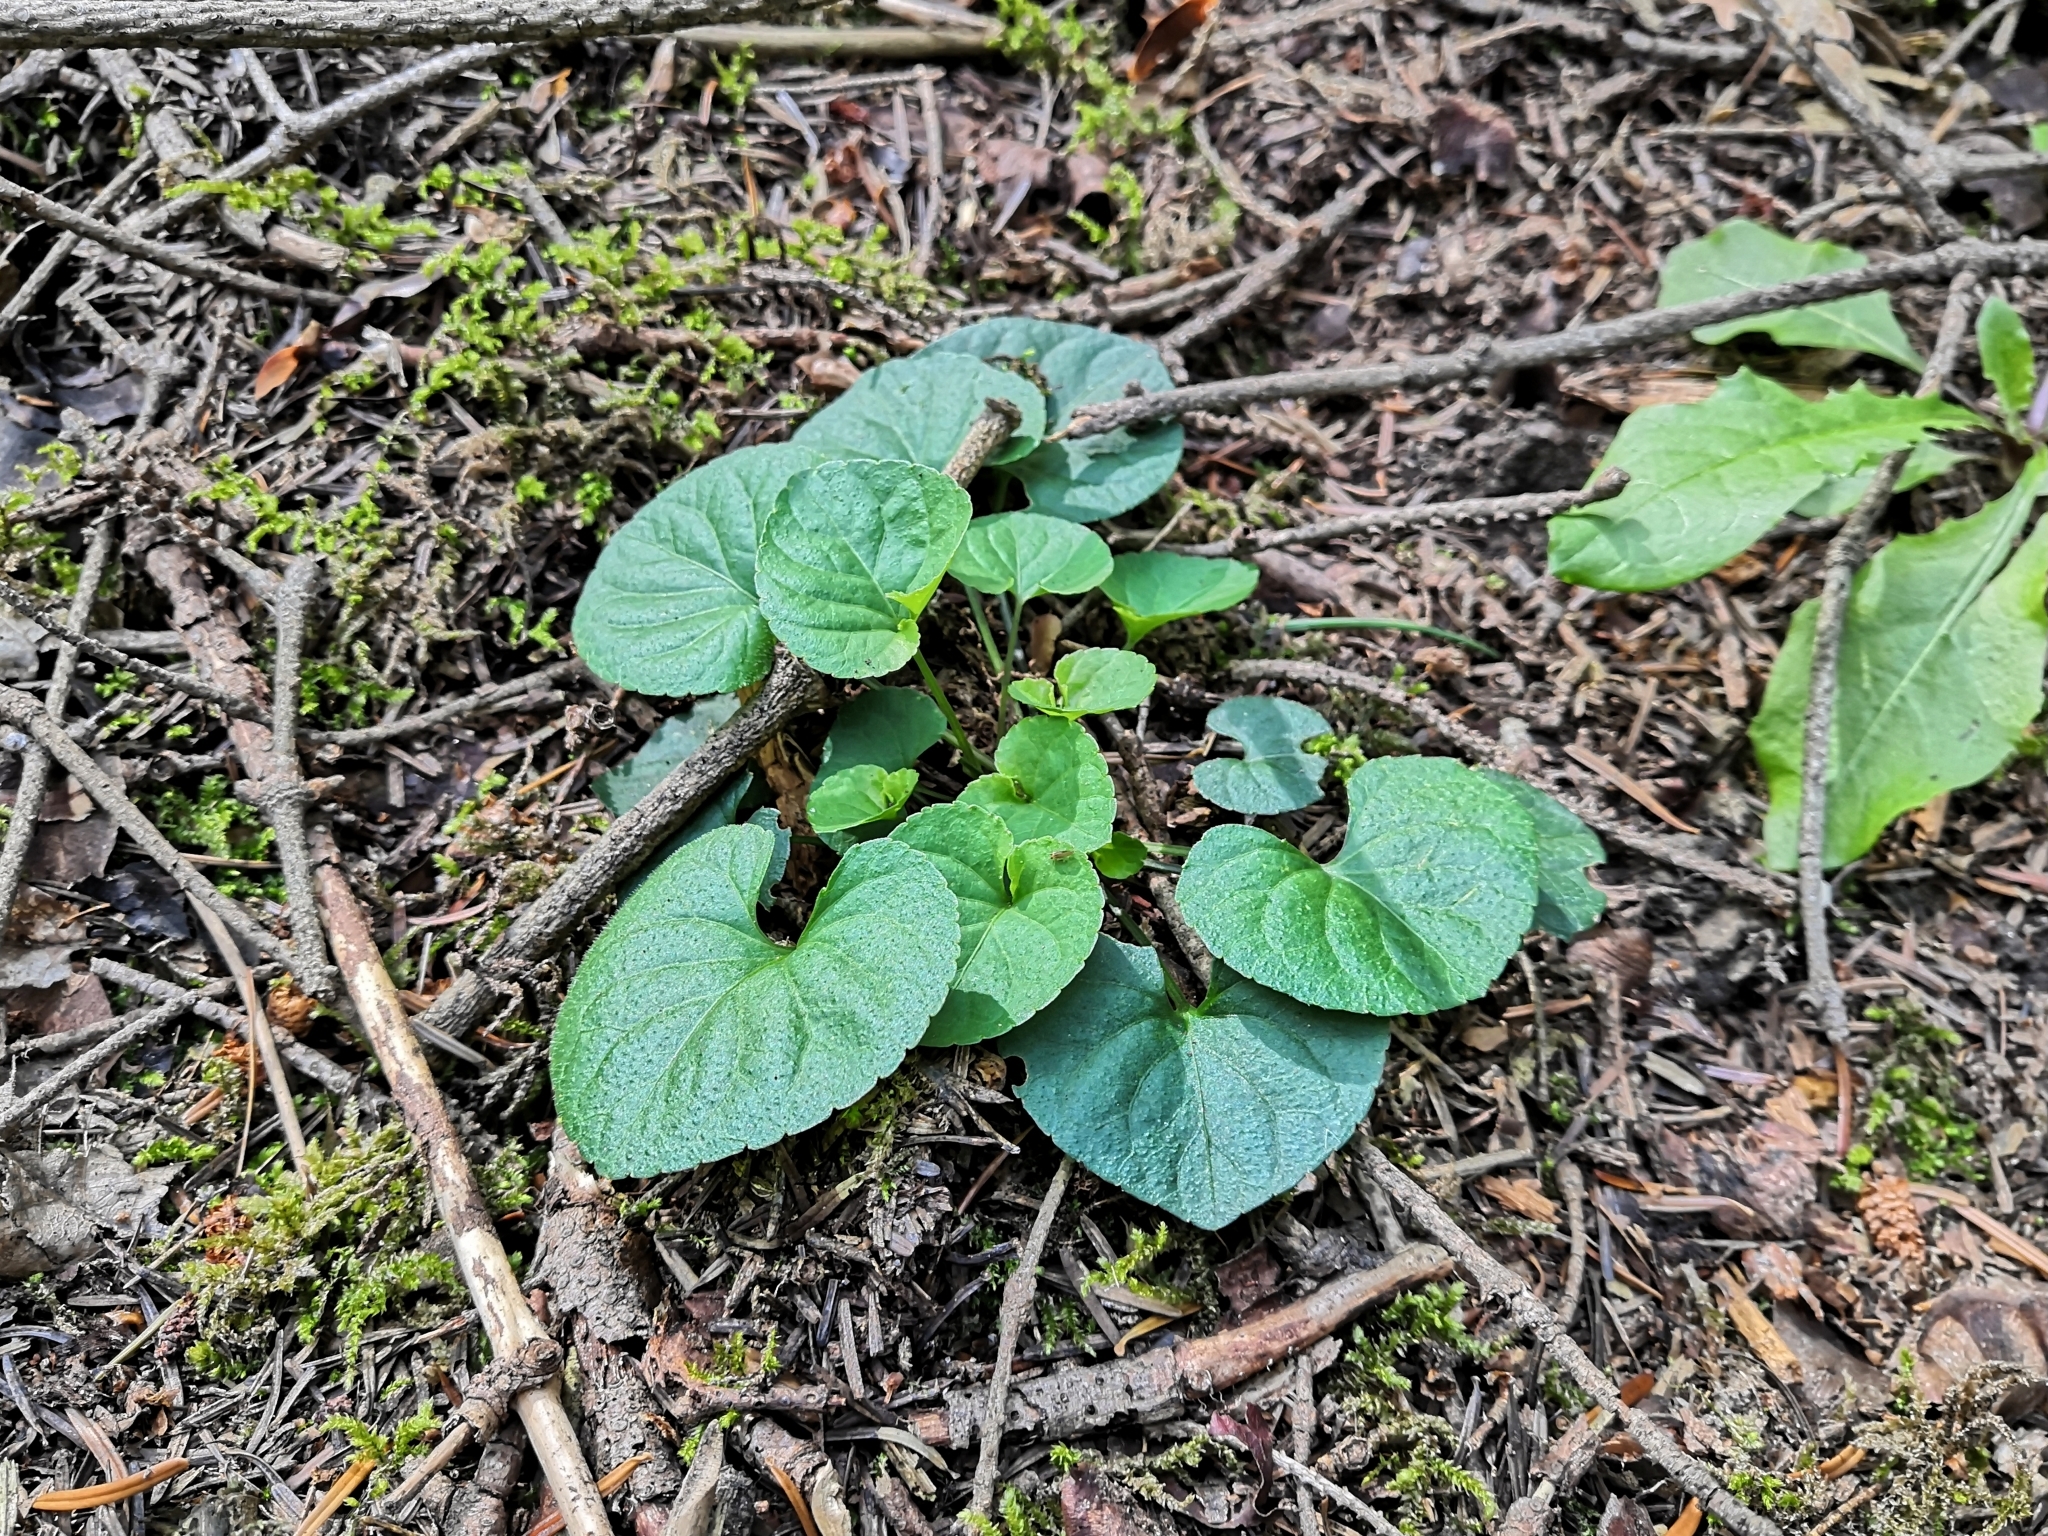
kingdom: Plantae
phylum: Tracheophyta
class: Magnoliopsida
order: Malpighiales
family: Violaceae
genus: Viola
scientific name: Viola odorata
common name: Sweet violet
